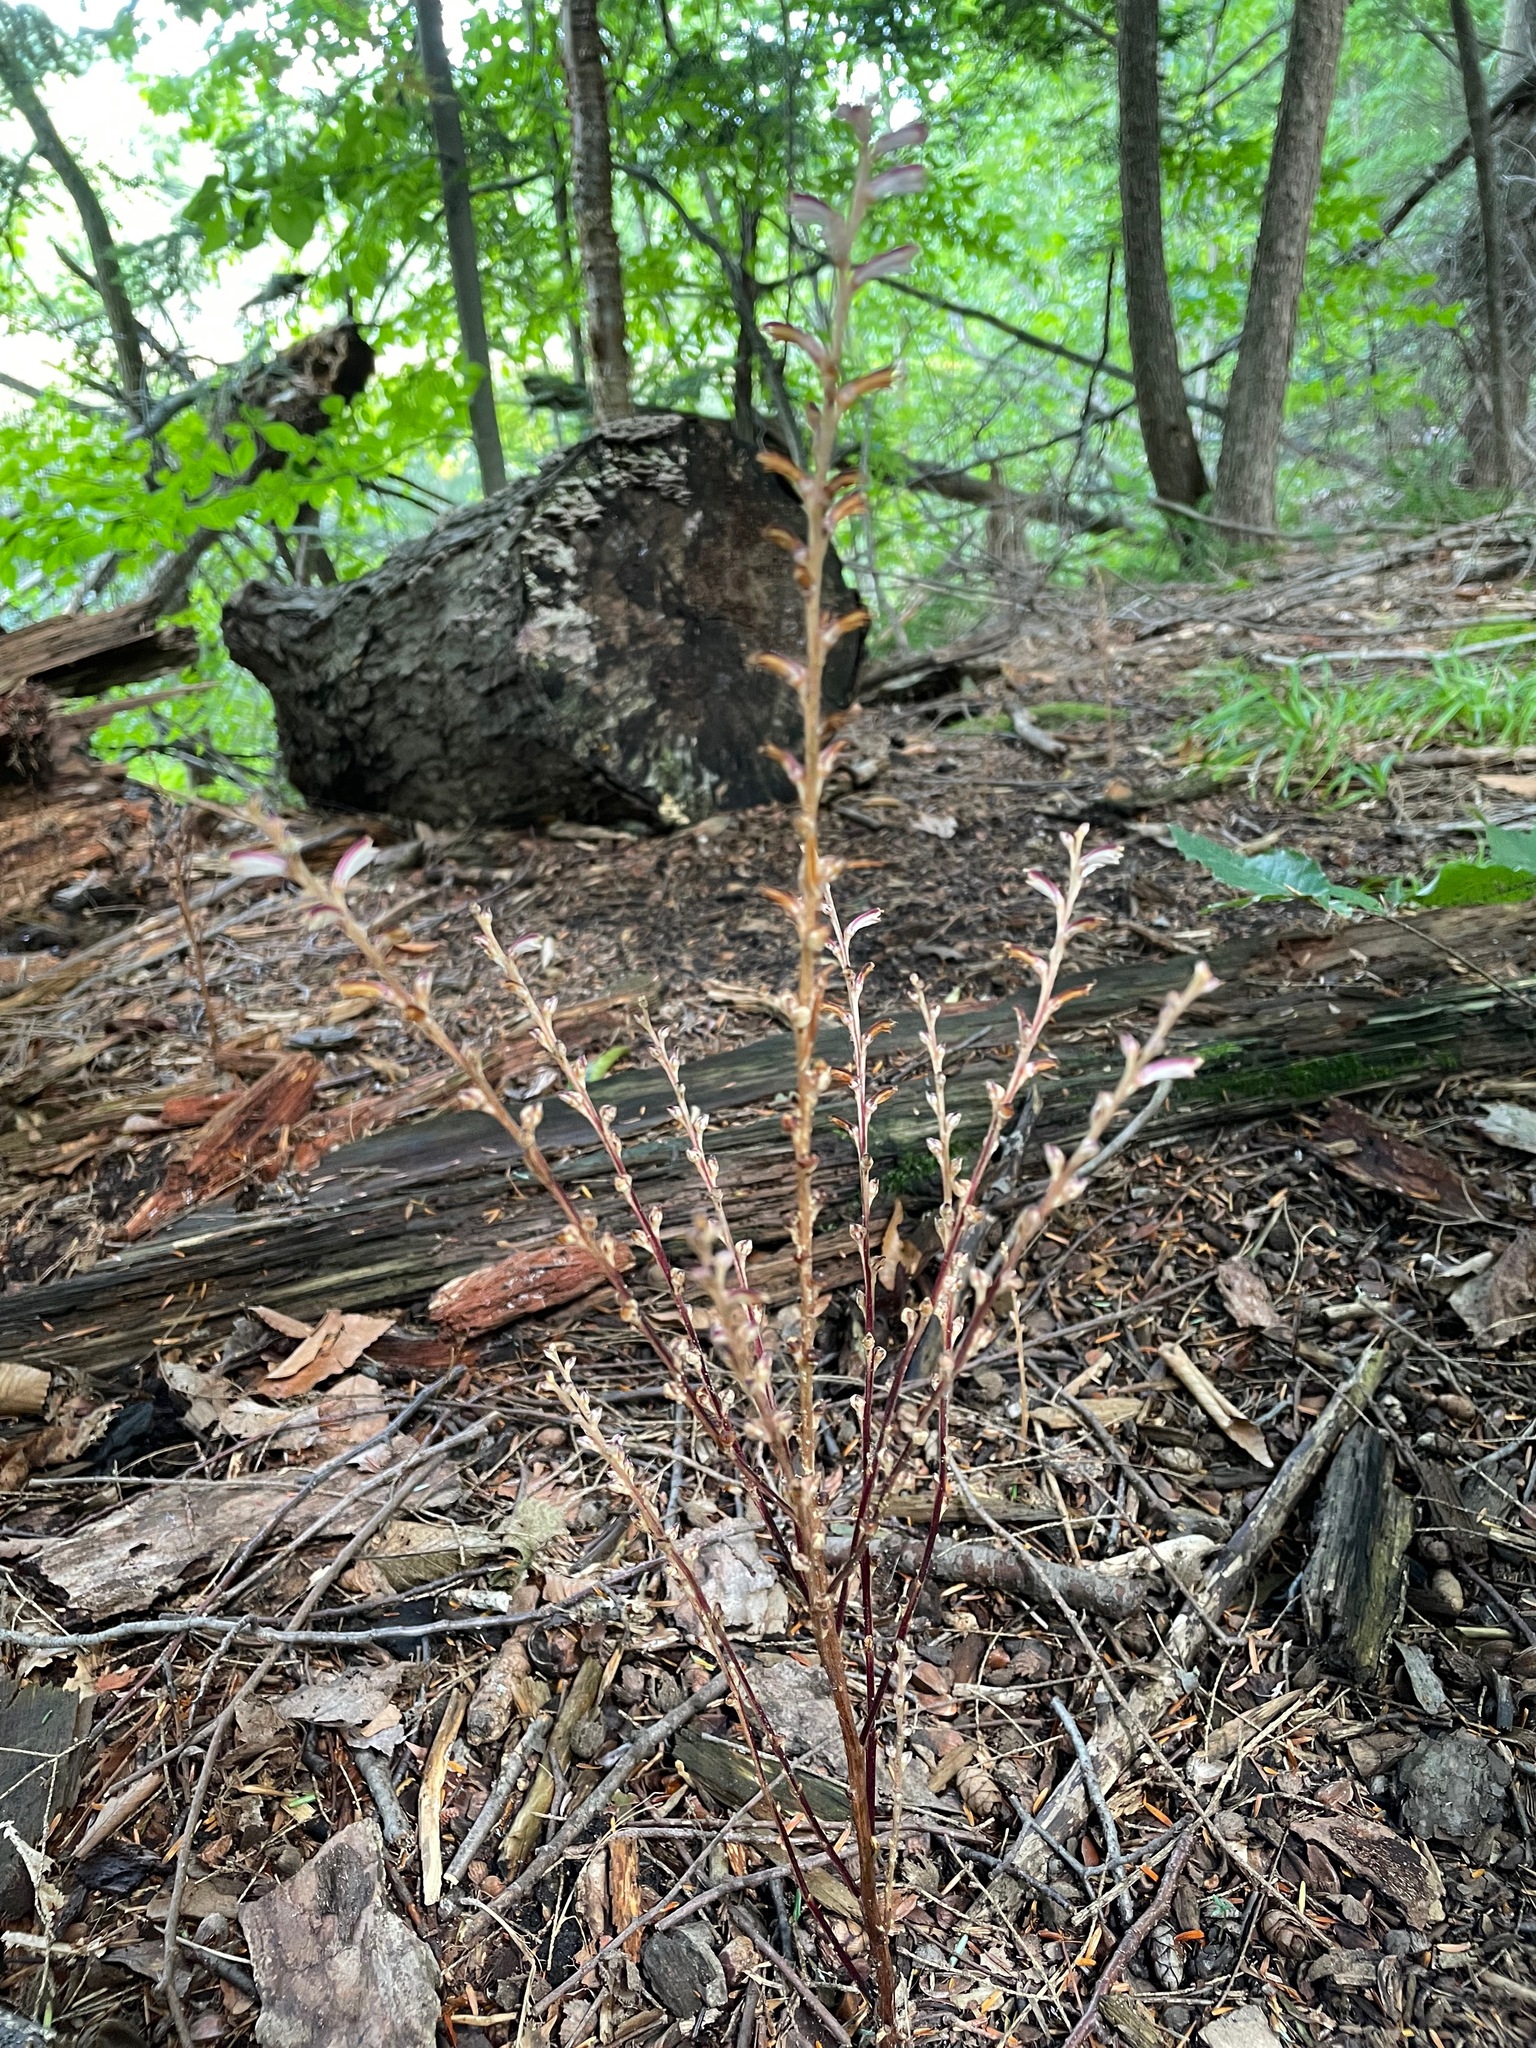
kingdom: Plantae
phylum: Tracheophyta
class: Magnoliopsida
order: Lamiales
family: Orobanchaceae
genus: Epifagus
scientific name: Epifagus virginiana
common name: Beechdrops
